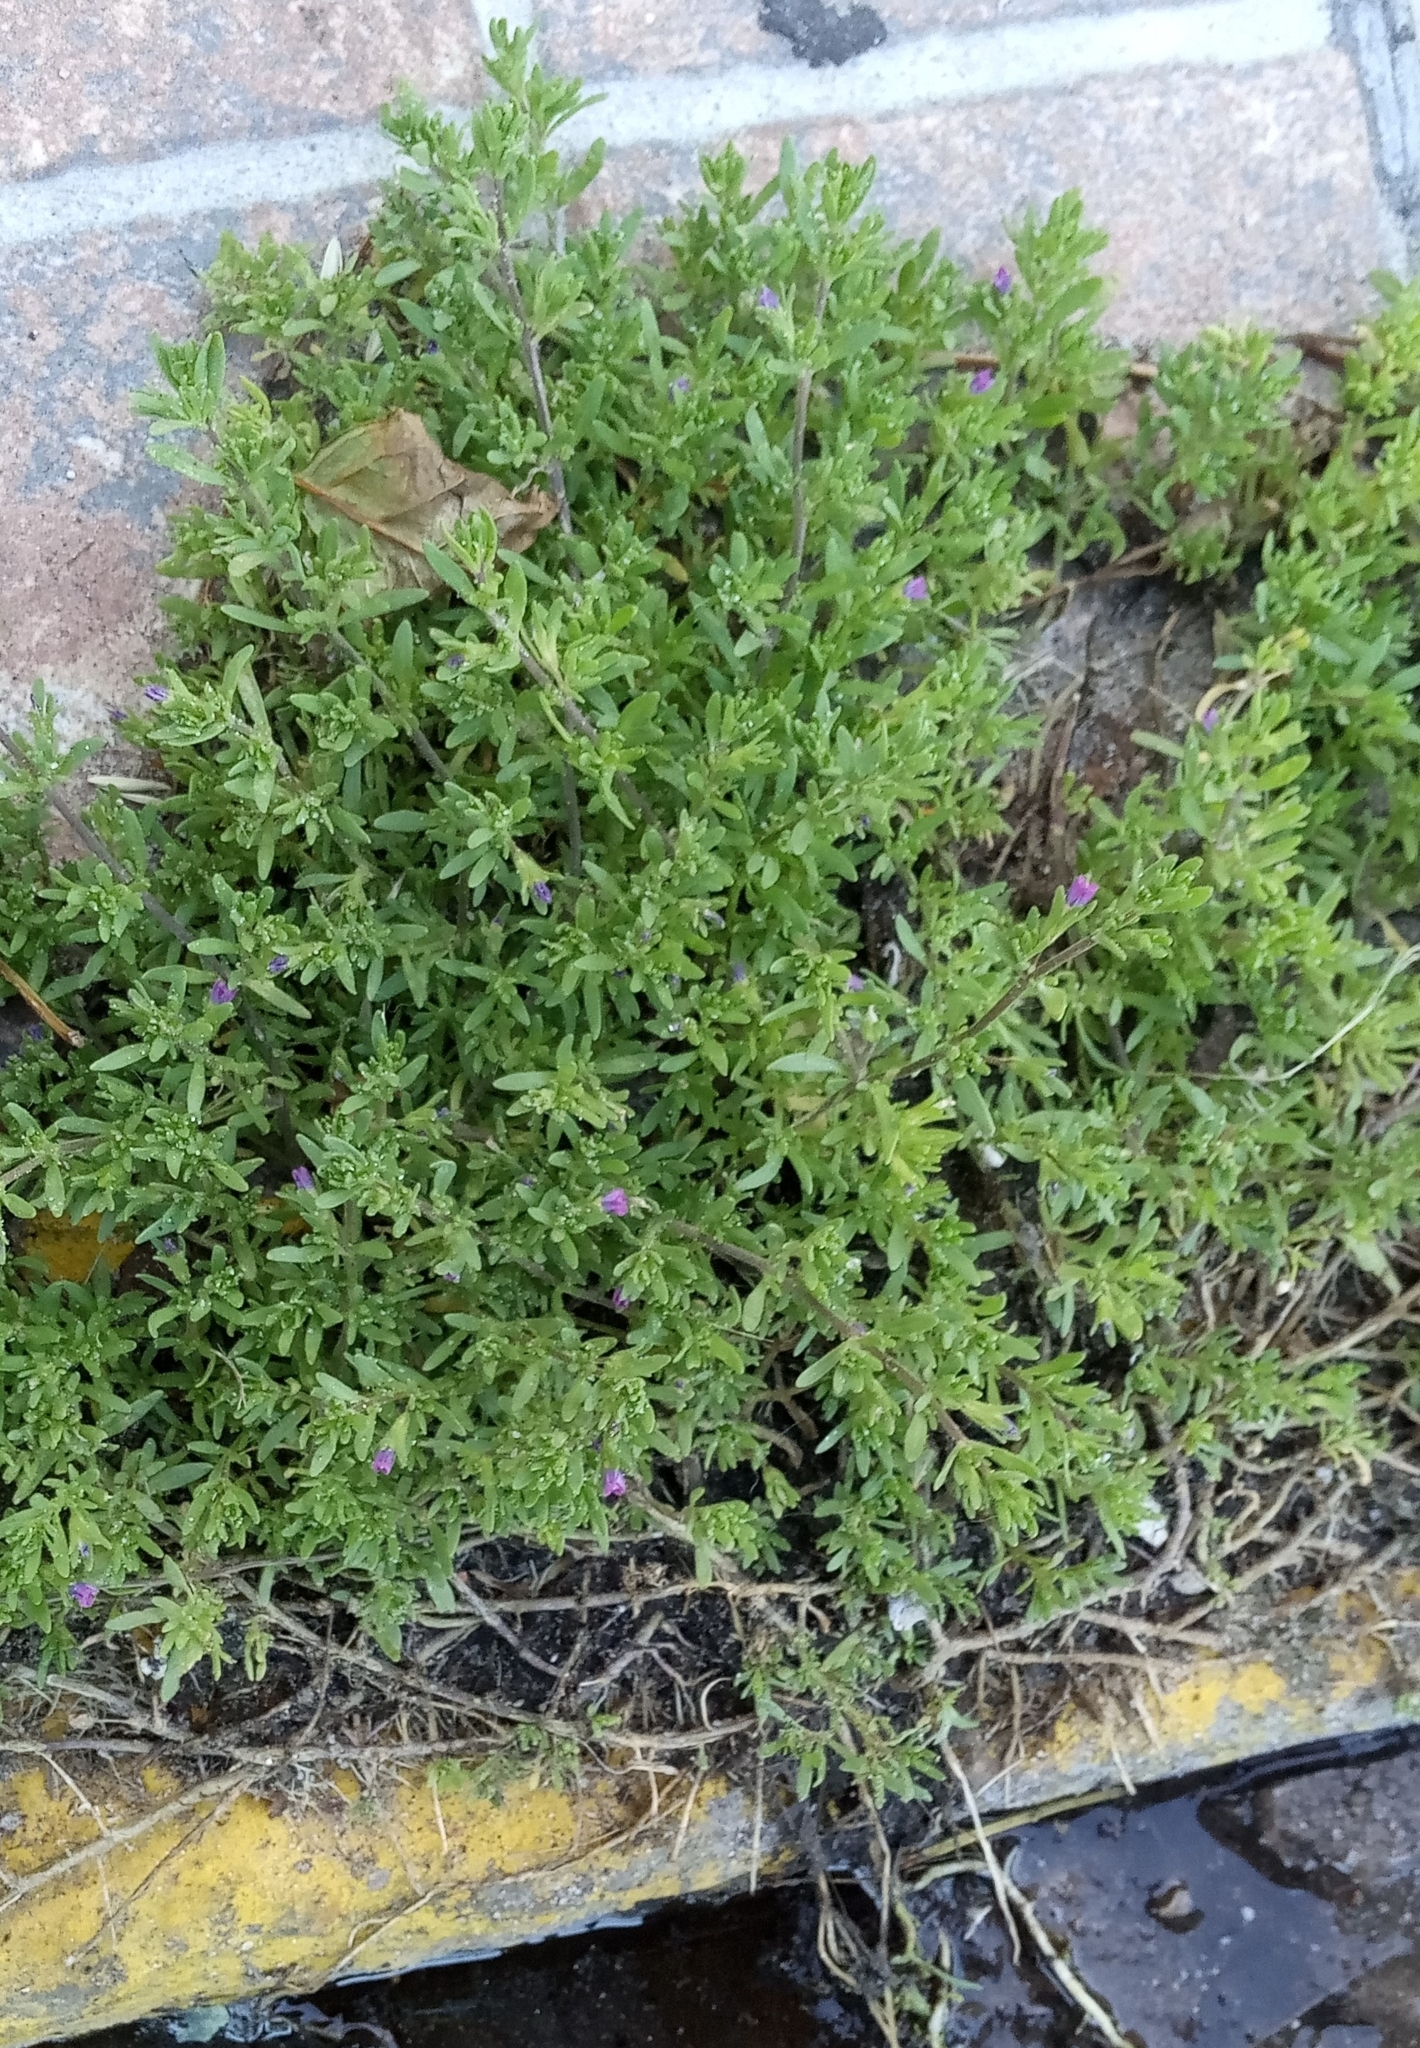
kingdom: Plantae
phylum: Tracheophyta
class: Magnoliopsida
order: Solanales
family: Solanaceae
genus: Calibrachoa
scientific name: Calibrachoa parviflora
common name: Seaside petunia
